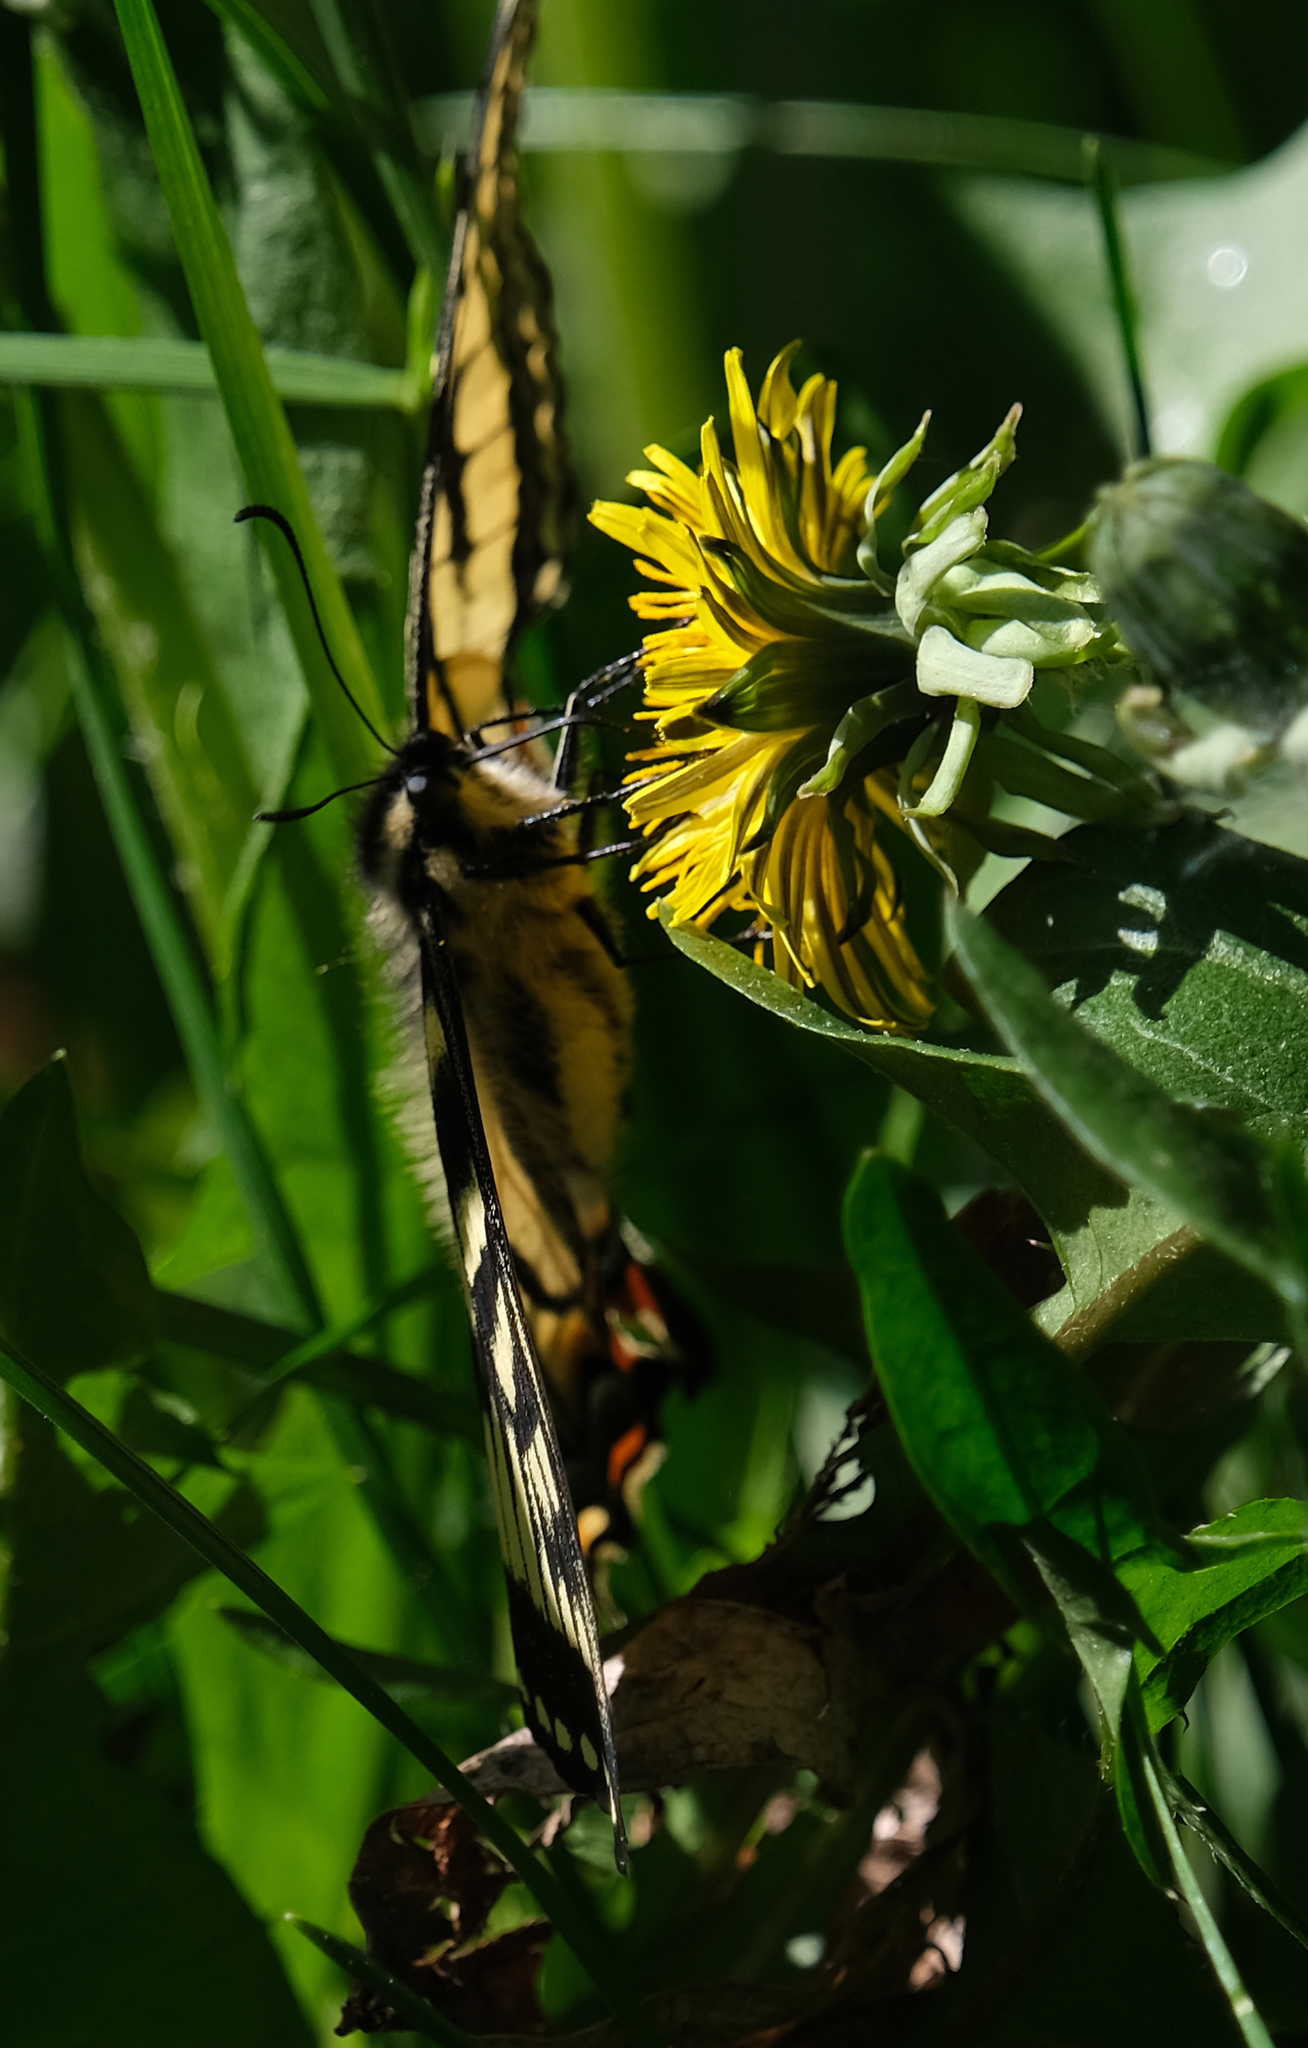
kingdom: Animalia
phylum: Arthropoda
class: Insecta
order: Lepidoptera
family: Papilionidae
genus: Papilio
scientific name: Papilio canadensis
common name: Canadian tiger swallowtail
